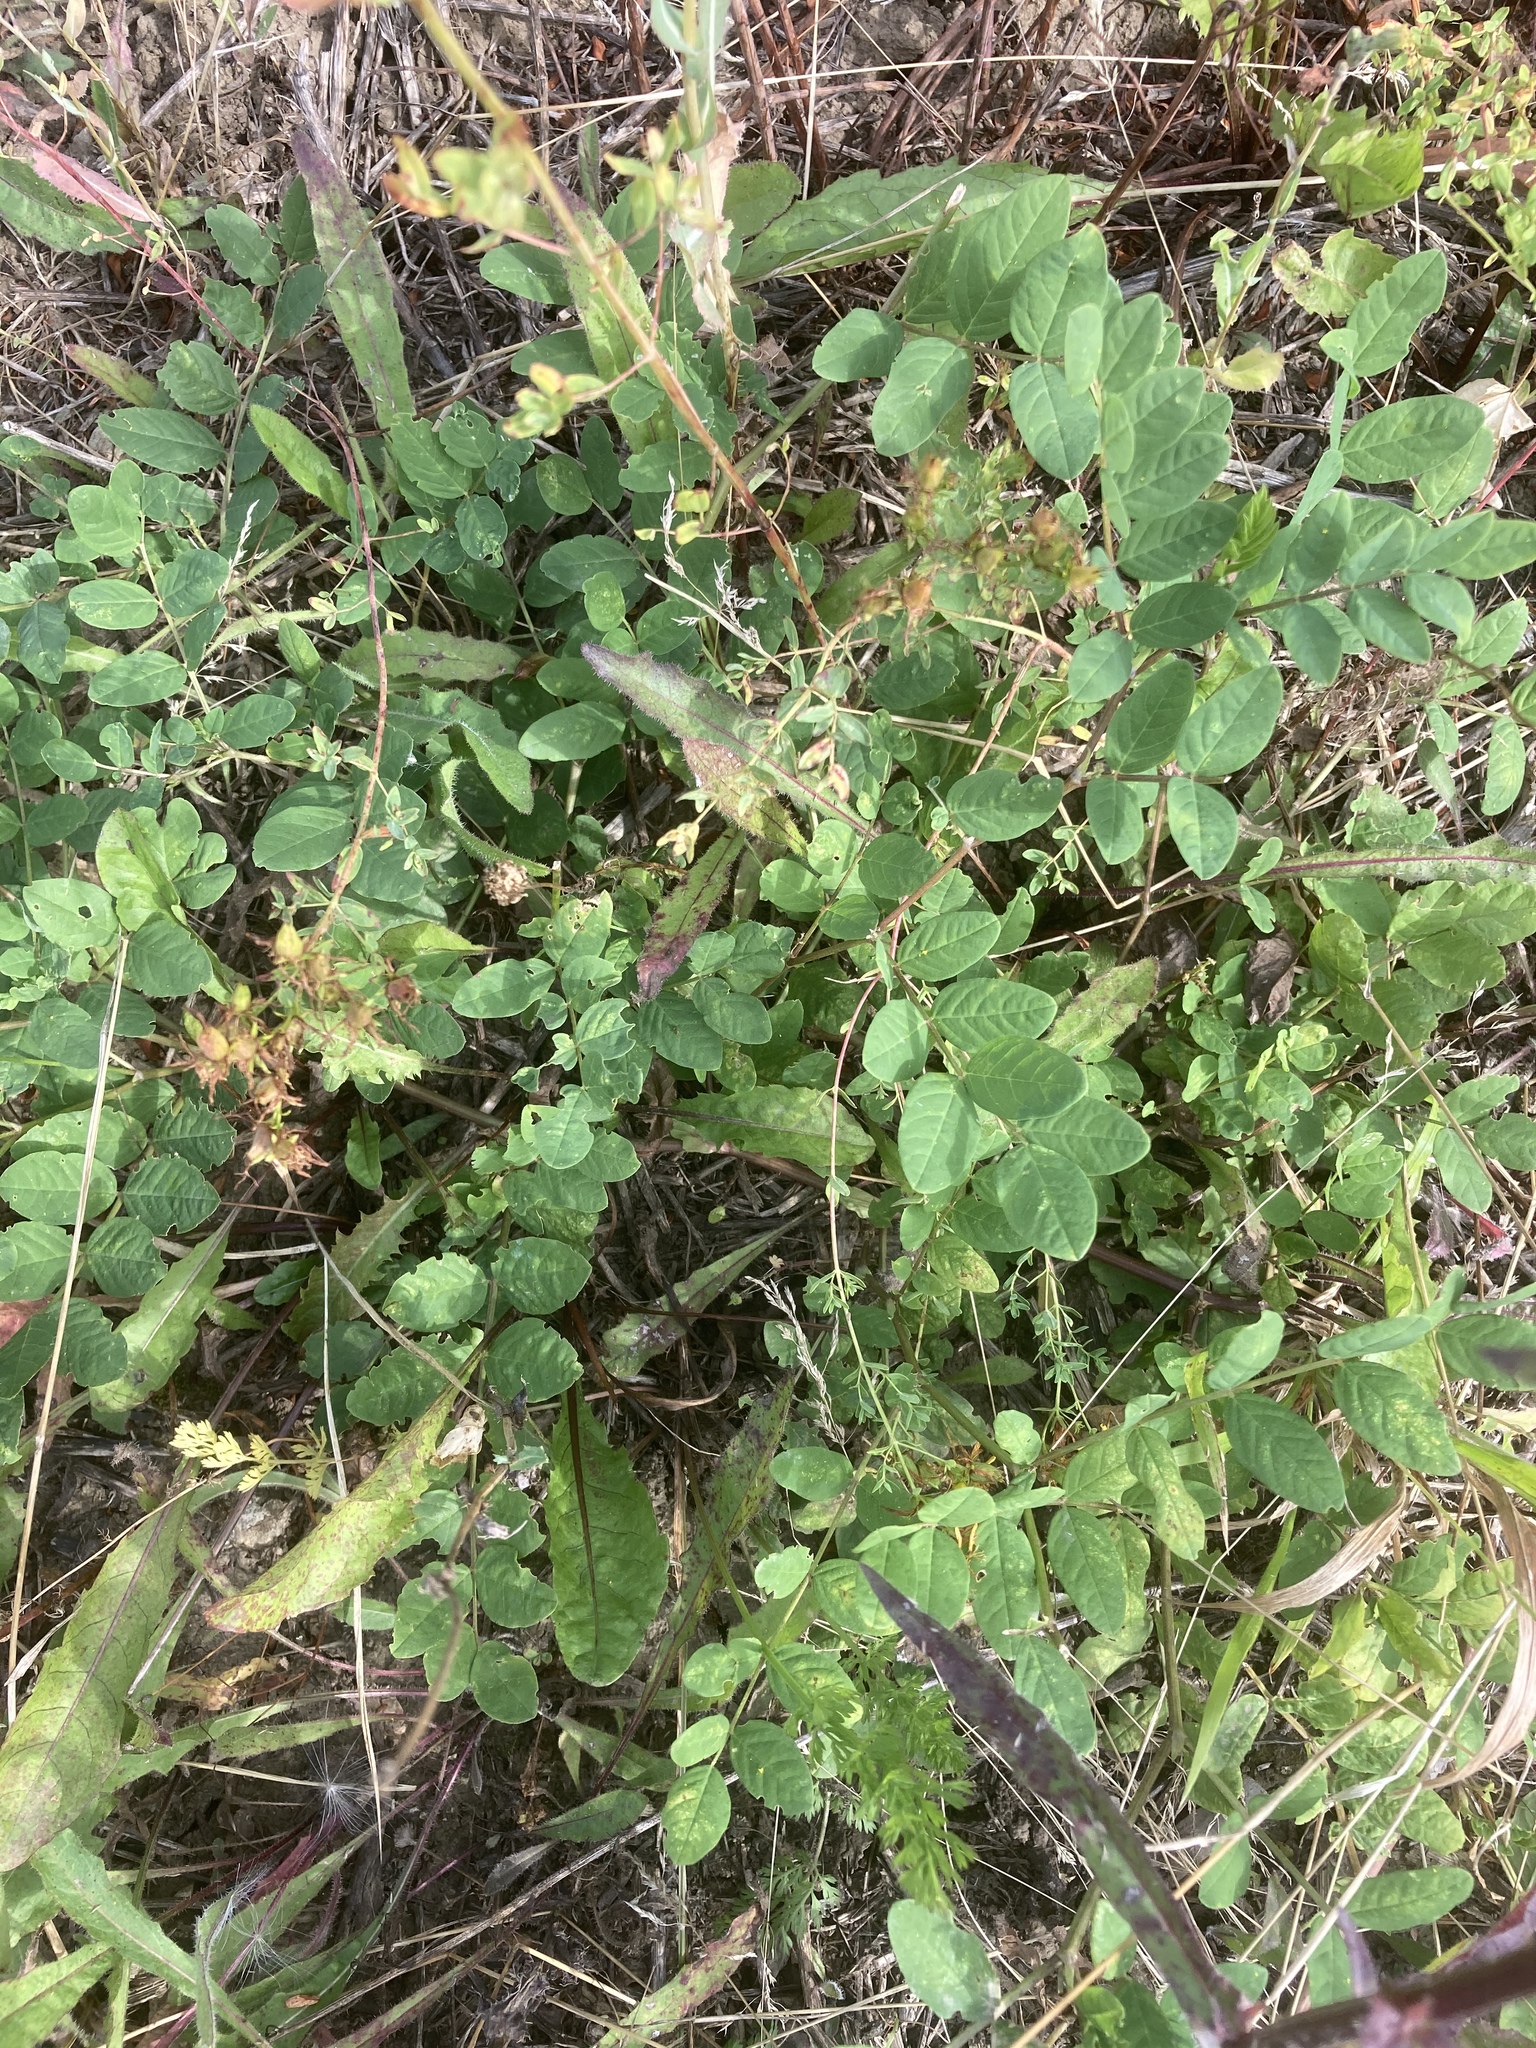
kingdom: Plantae
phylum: Tracheophyta
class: Magnoliopsida
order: Fabales
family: Fabaceae
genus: Astragalus
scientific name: Astragalus glycyphyllos
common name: Wild liquorice
